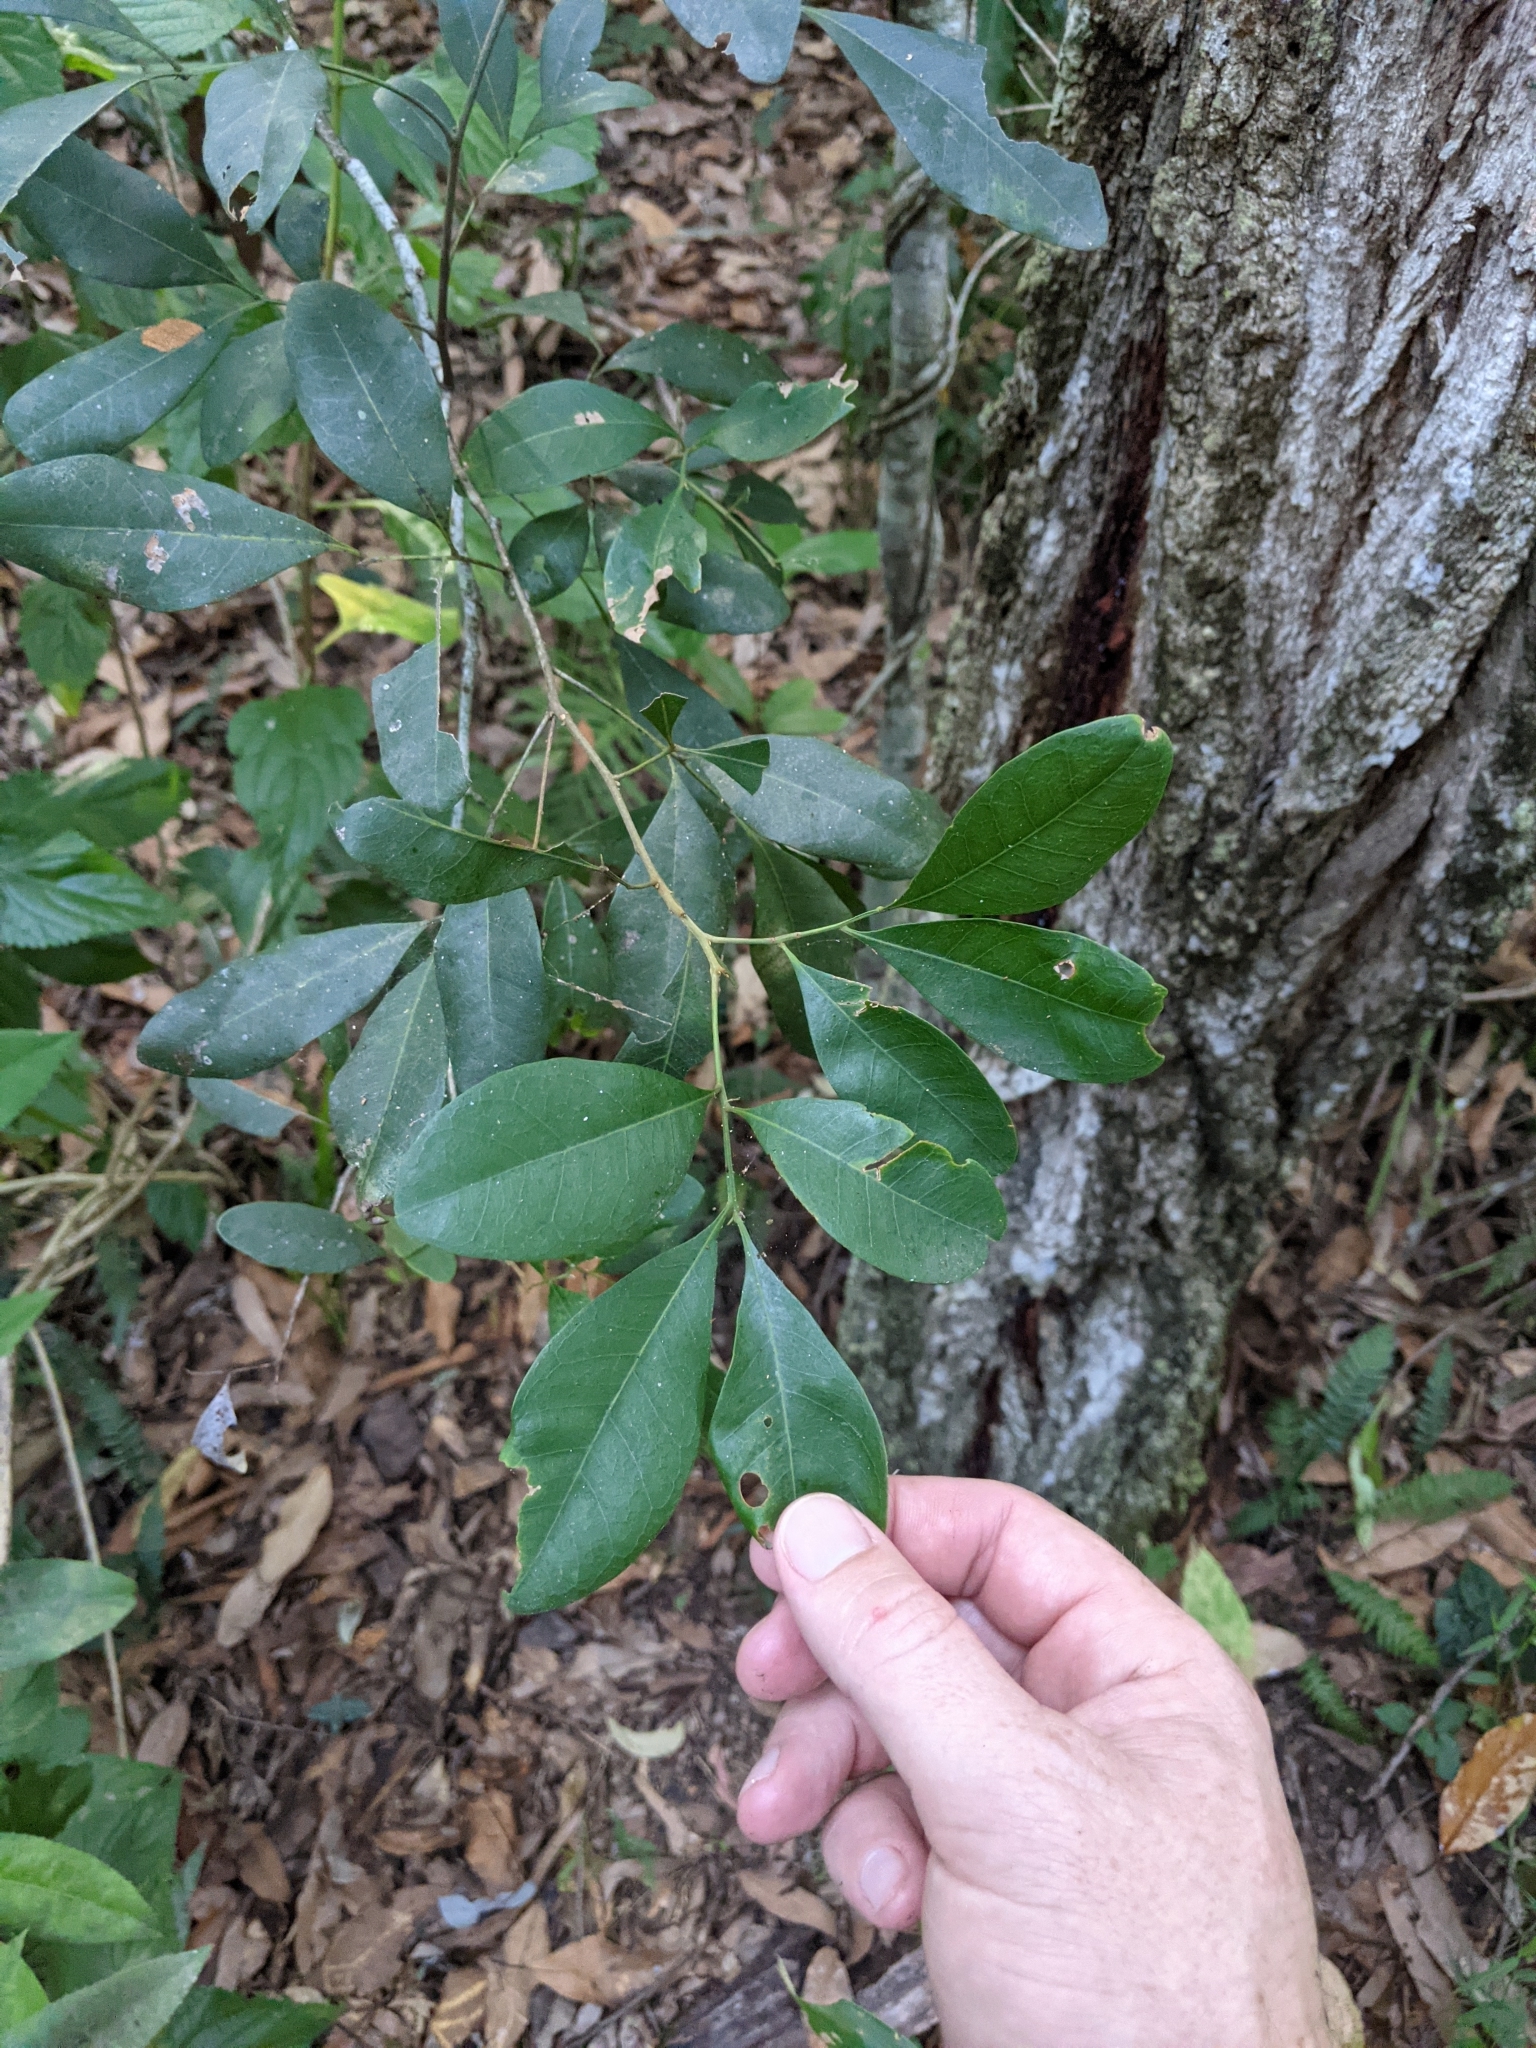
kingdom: Plantae
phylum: Tracheophyta
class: Magnoliopsida
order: Sapindales
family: Sapindaceae
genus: Guioa
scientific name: Guioa semiglauca
